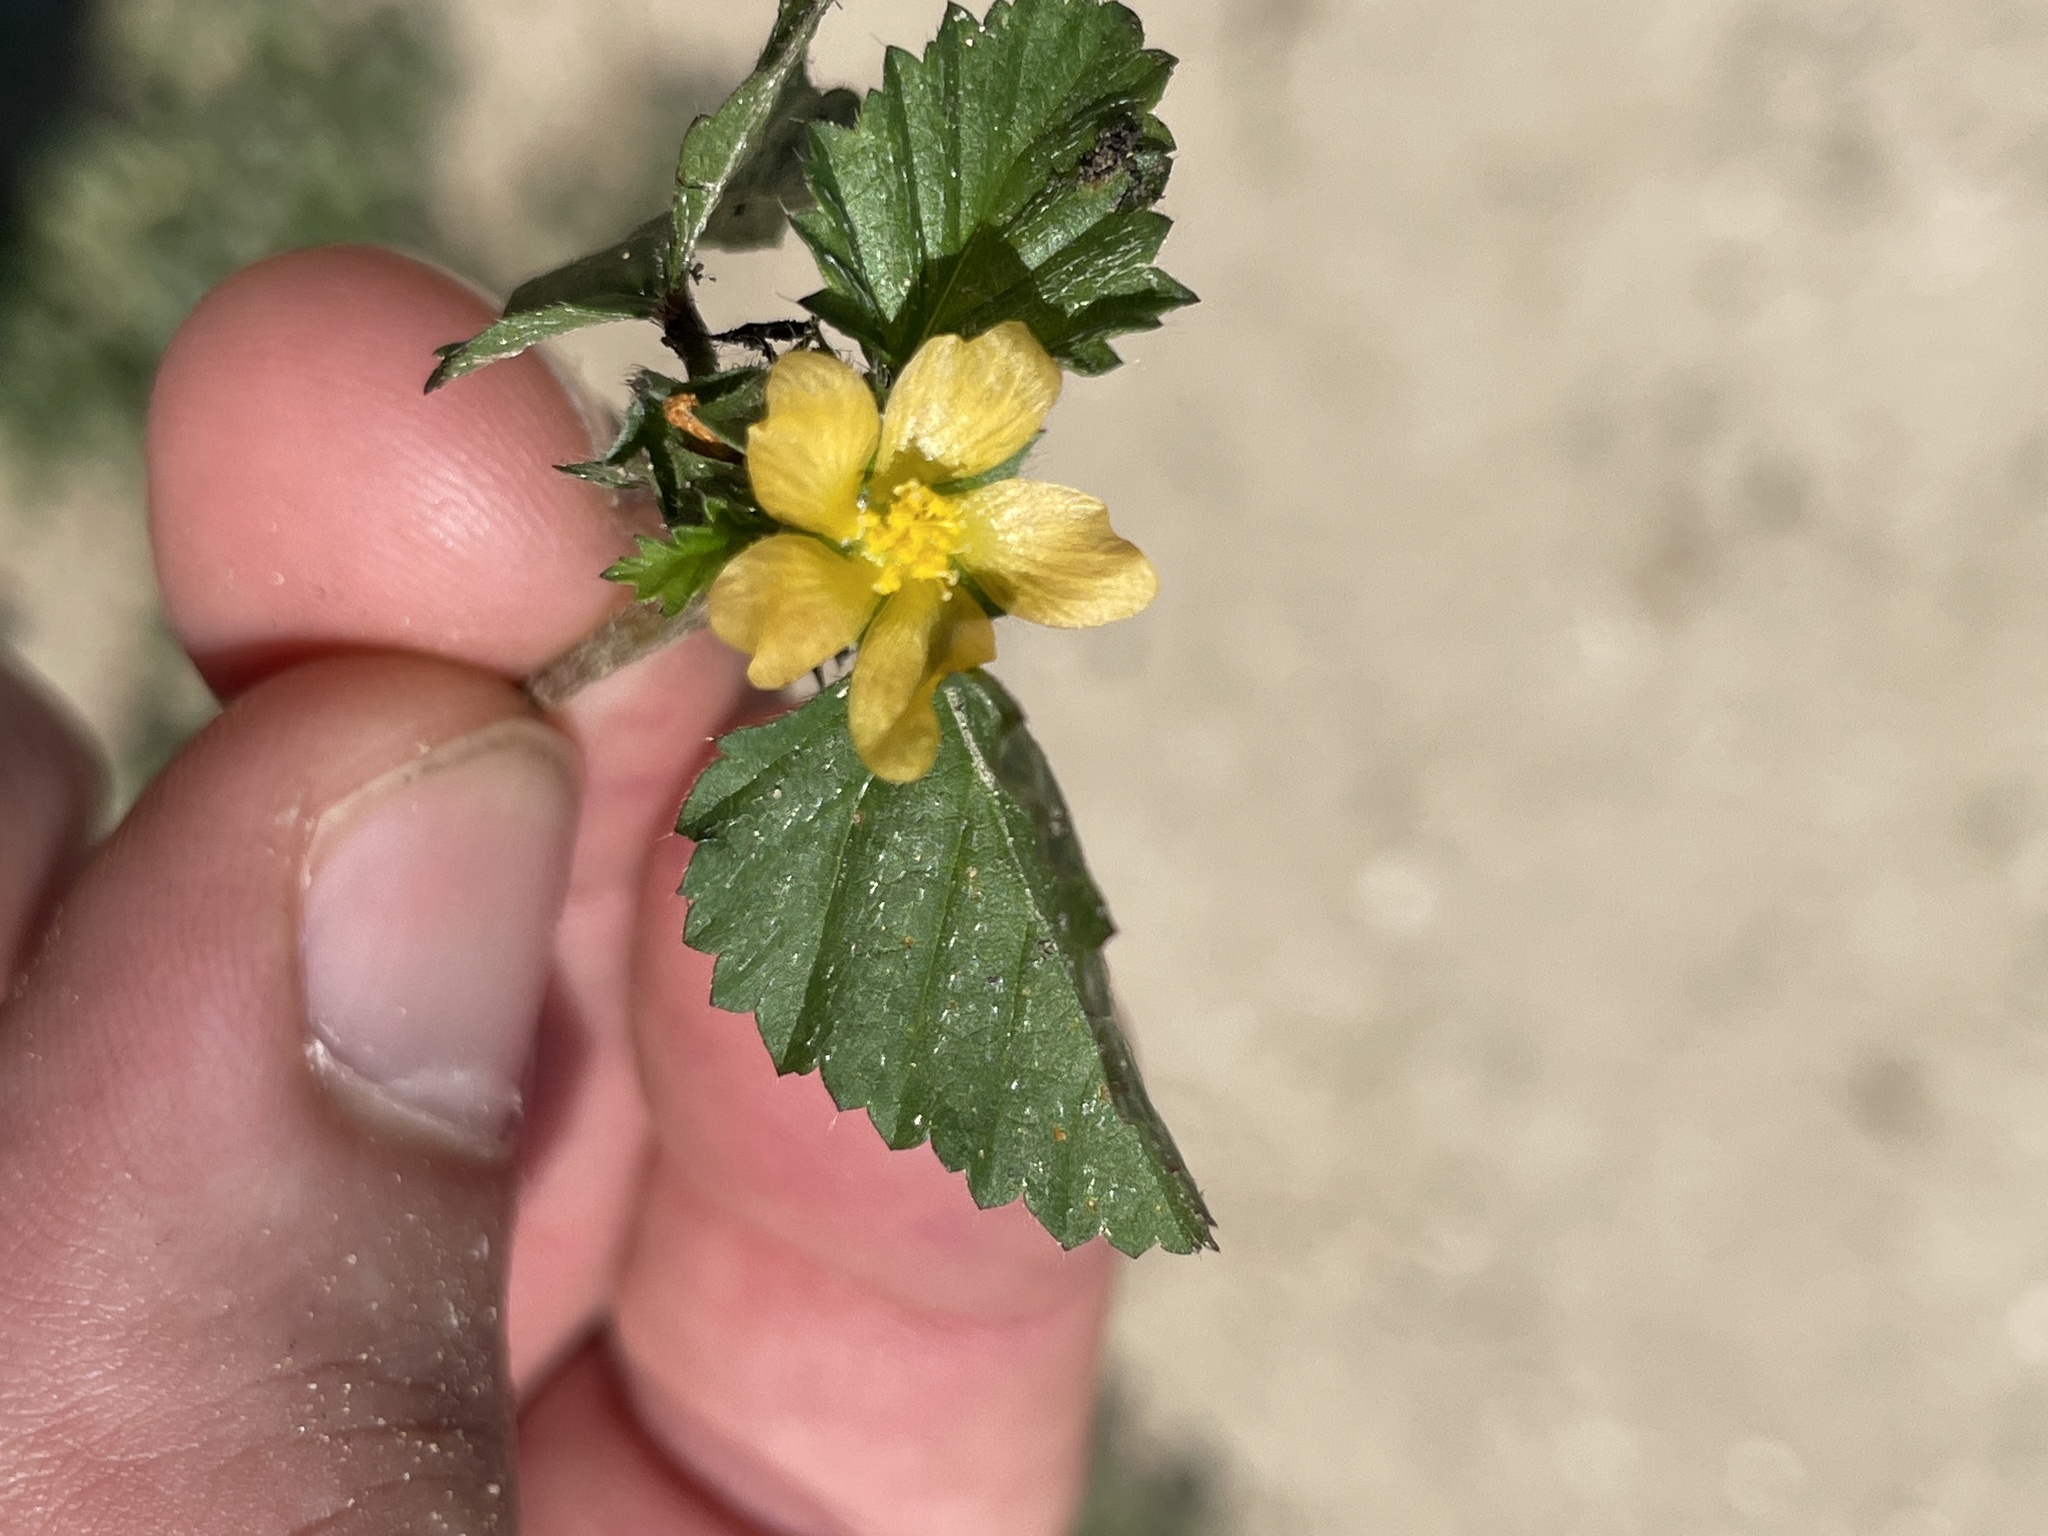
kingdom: Plantae
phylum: Tracheophyta
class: Magnoliopsida
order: Malvales
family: Malvaceae
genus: Malvastrum
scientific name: Malvastrum coromandelianum
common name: Threelobe false mallow
